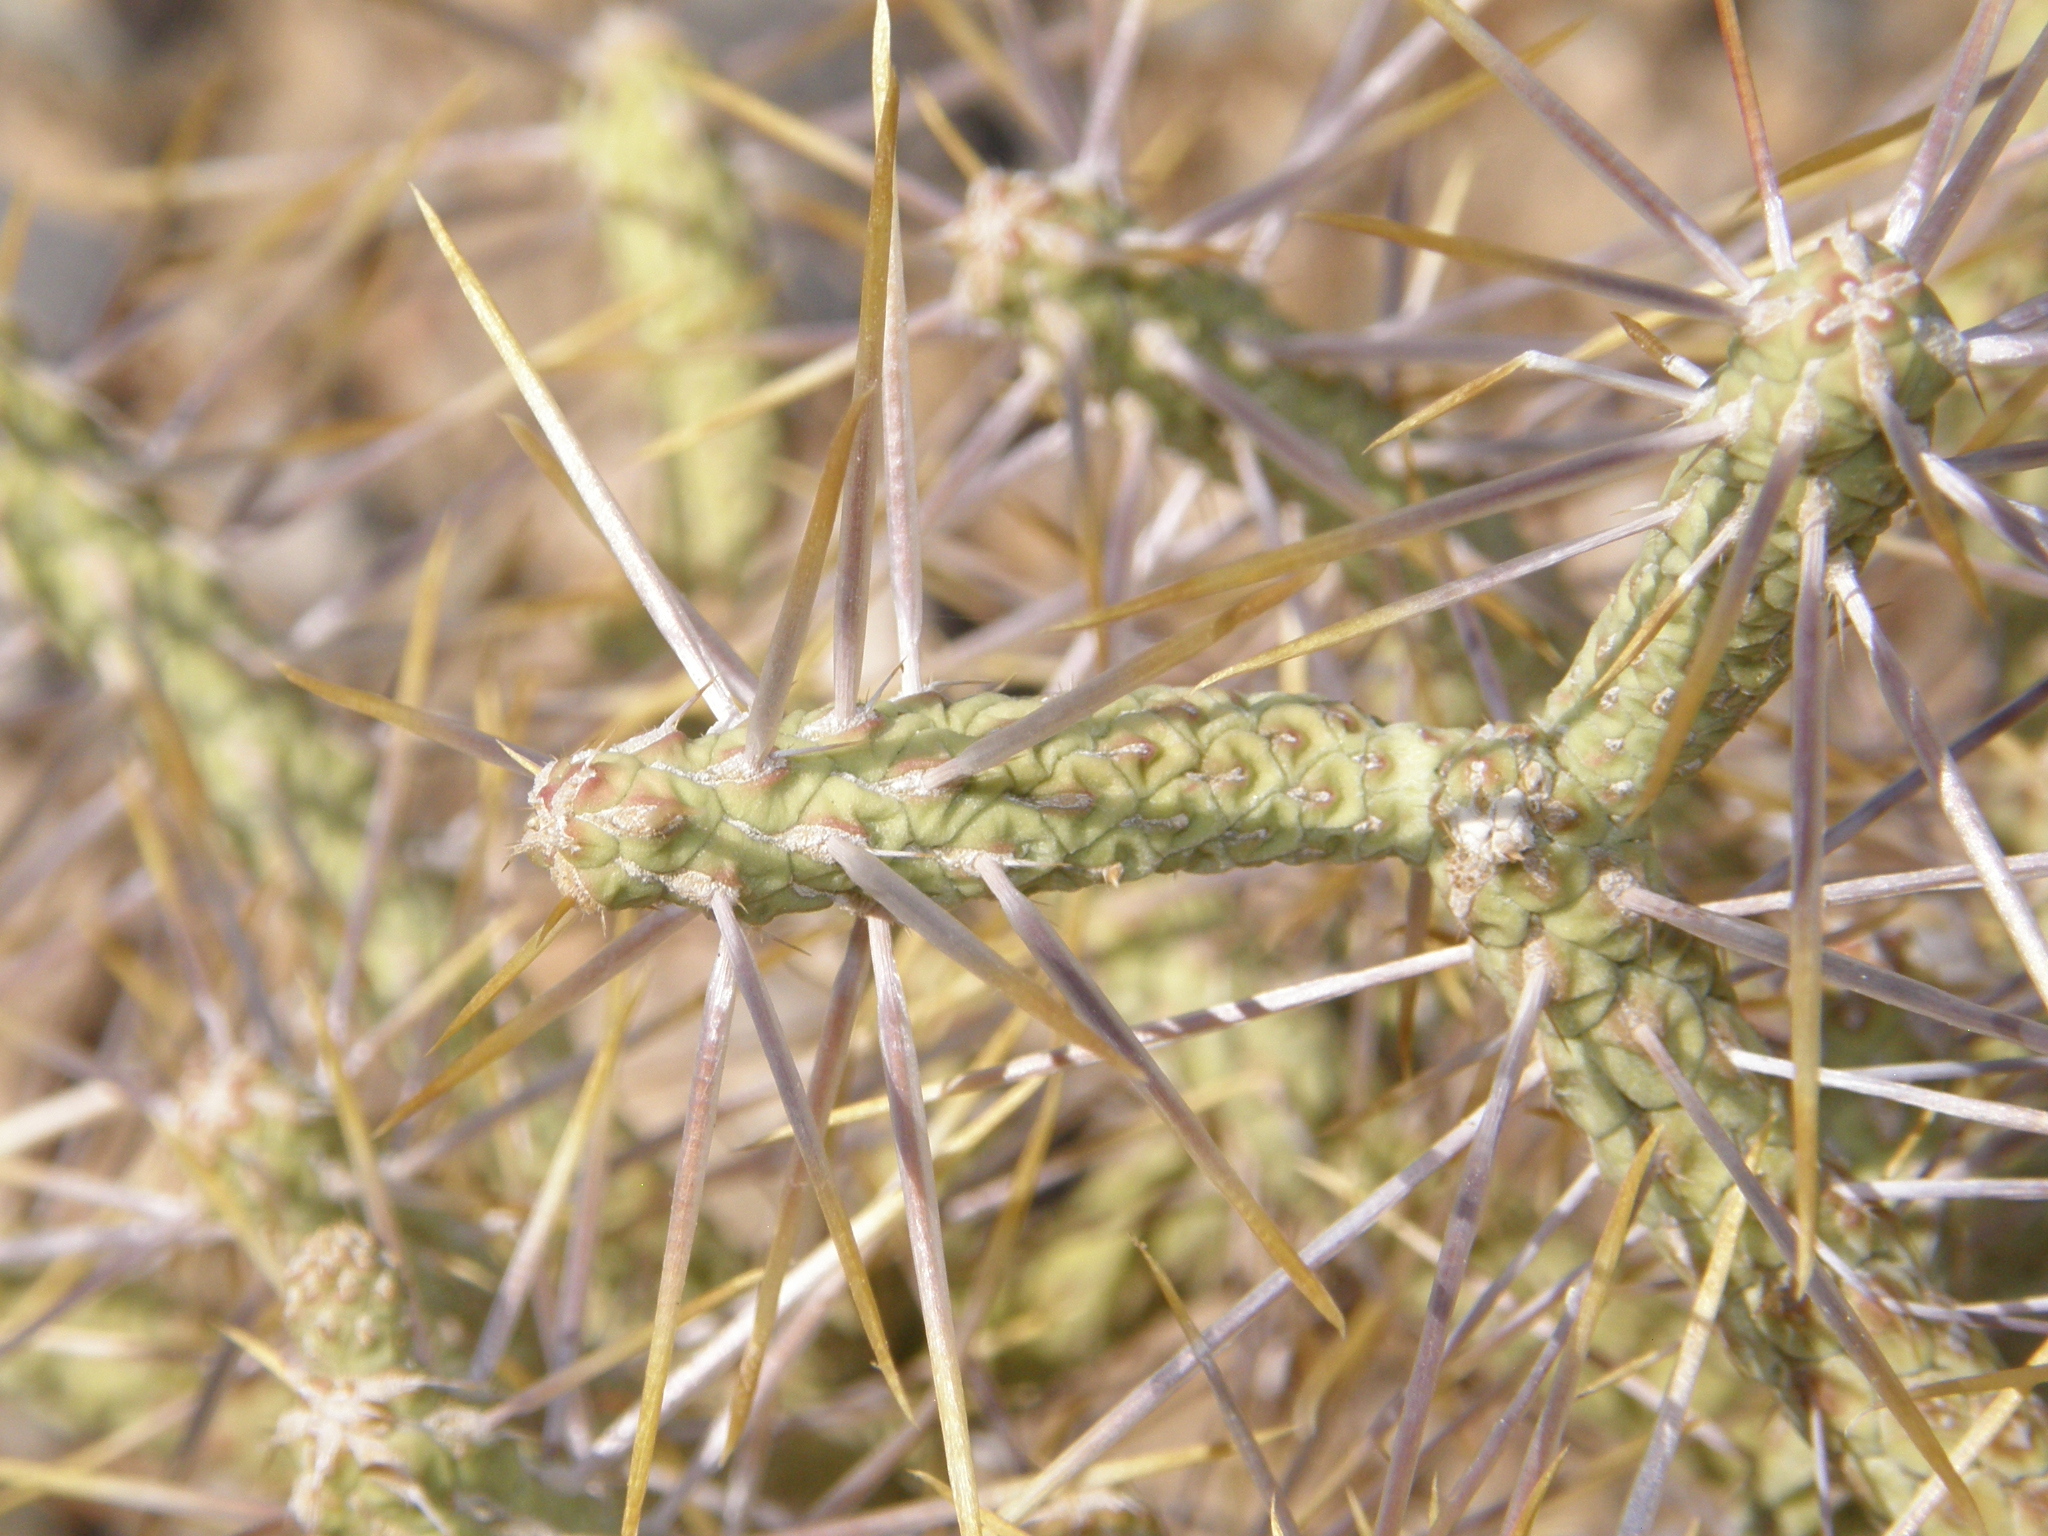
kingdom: Plantae
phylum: Tracheophyta
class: Magnoliopsida
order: Caryophyllales
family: Cactaceae
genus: Cylindropuntia
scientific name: Cylindropuntia ramosissima
